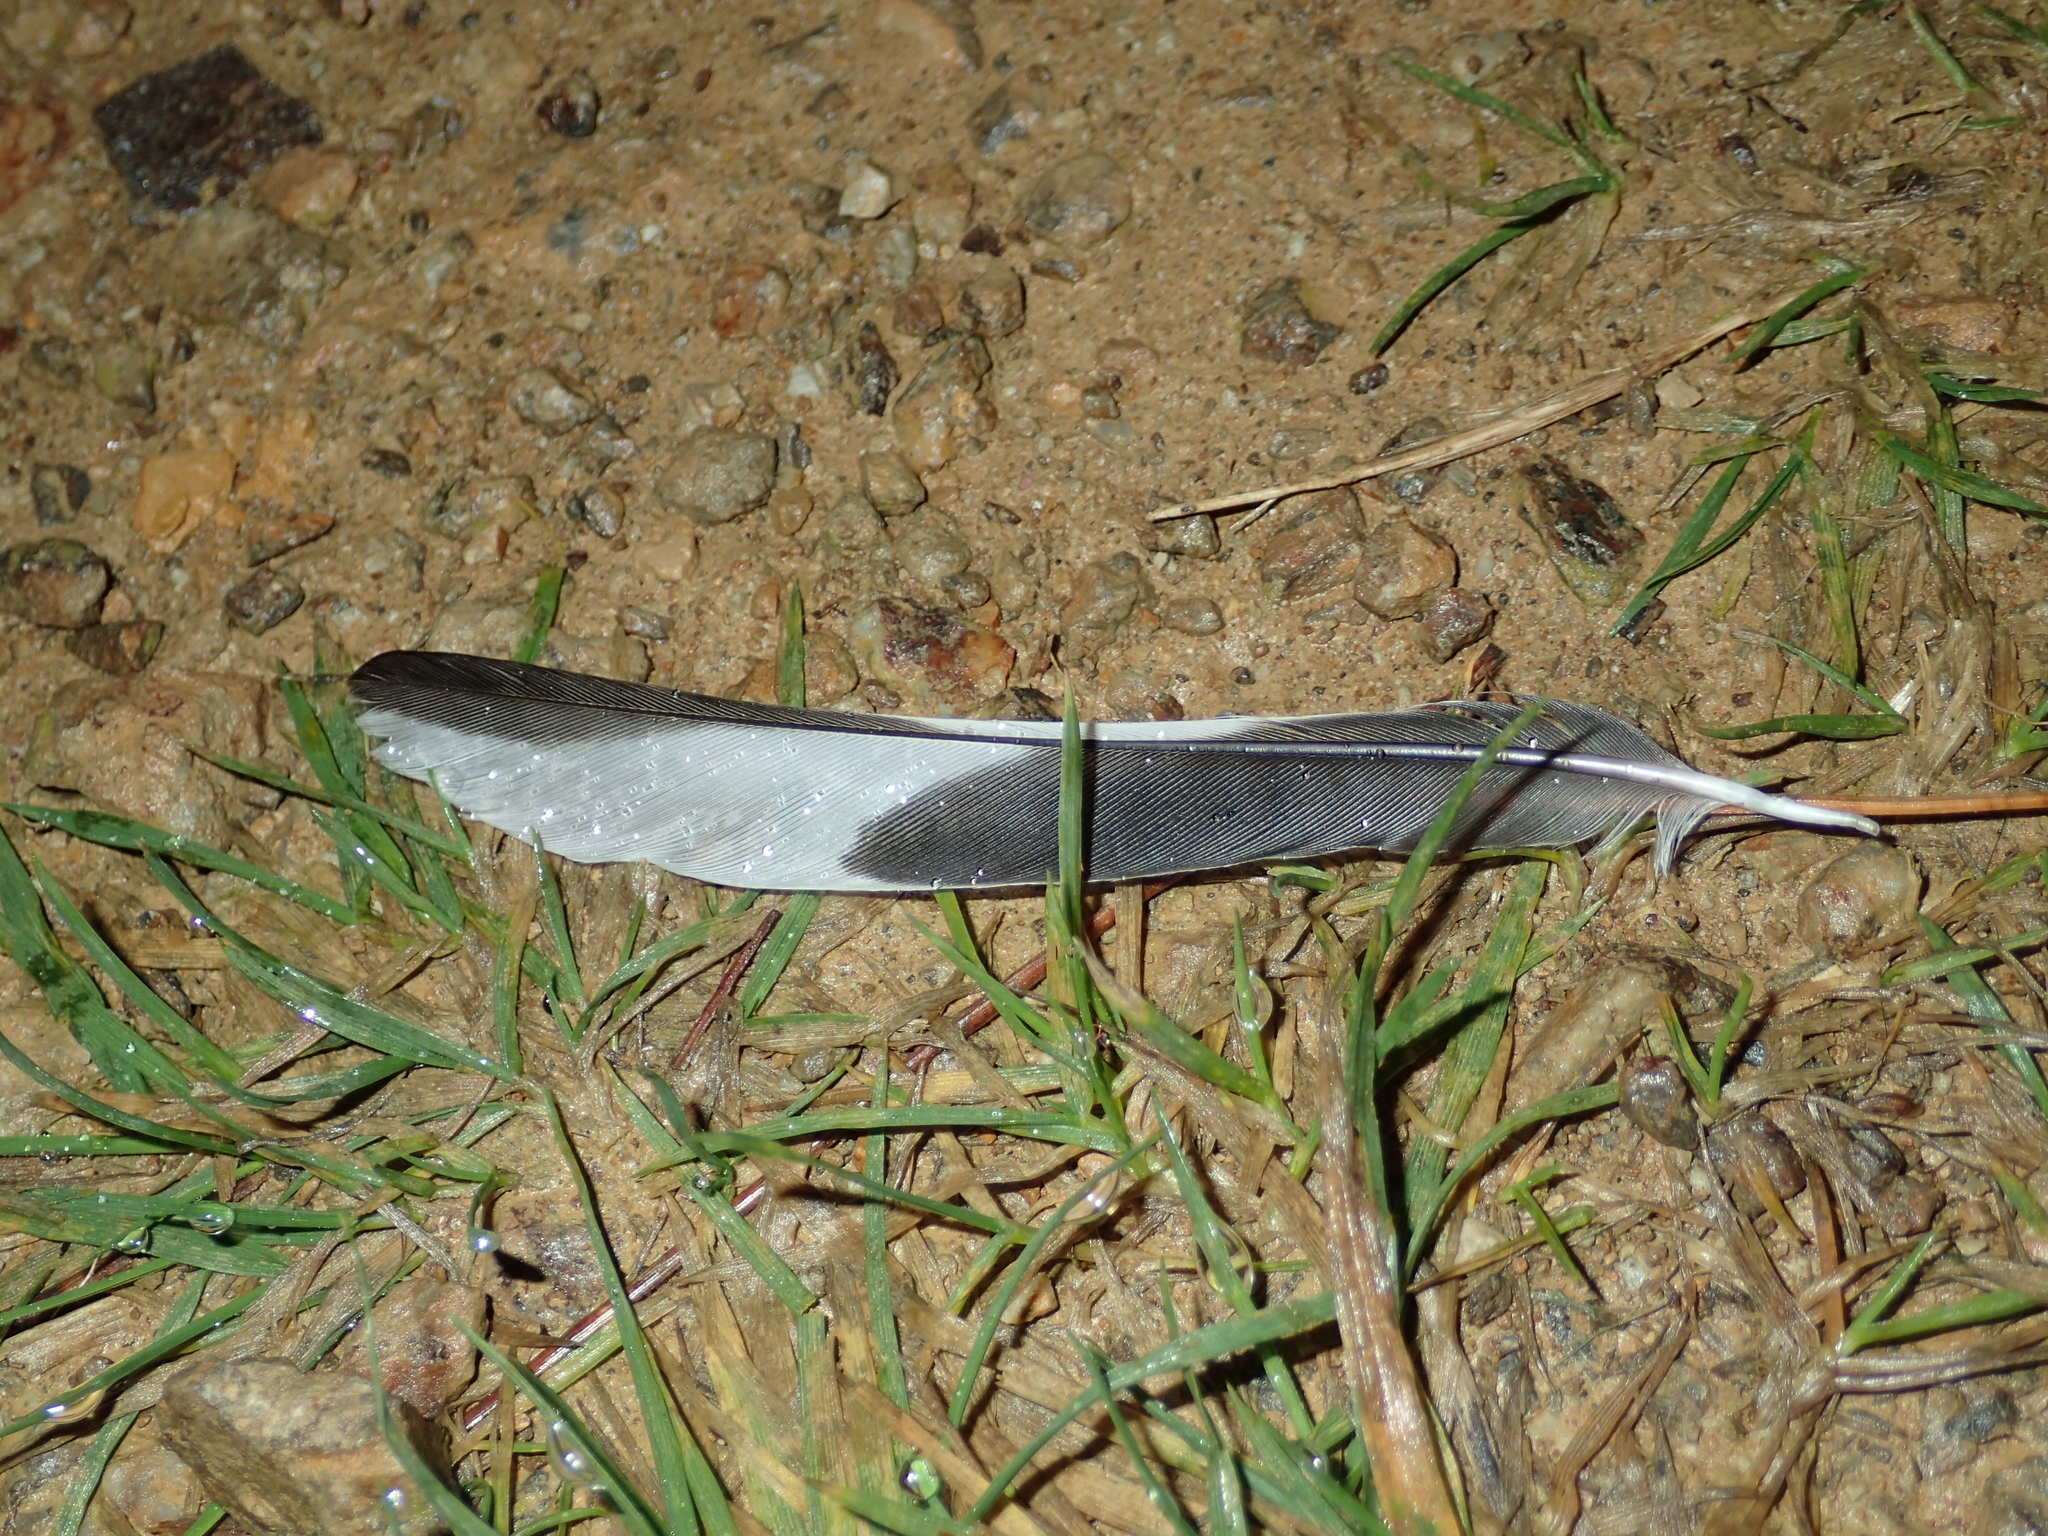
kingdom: Animalia
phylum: Chordata
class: Aves
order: Passeriformes
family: Fringillidae
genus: Fringilla
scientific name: Fringilla coelebs
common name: Common chaffinch
